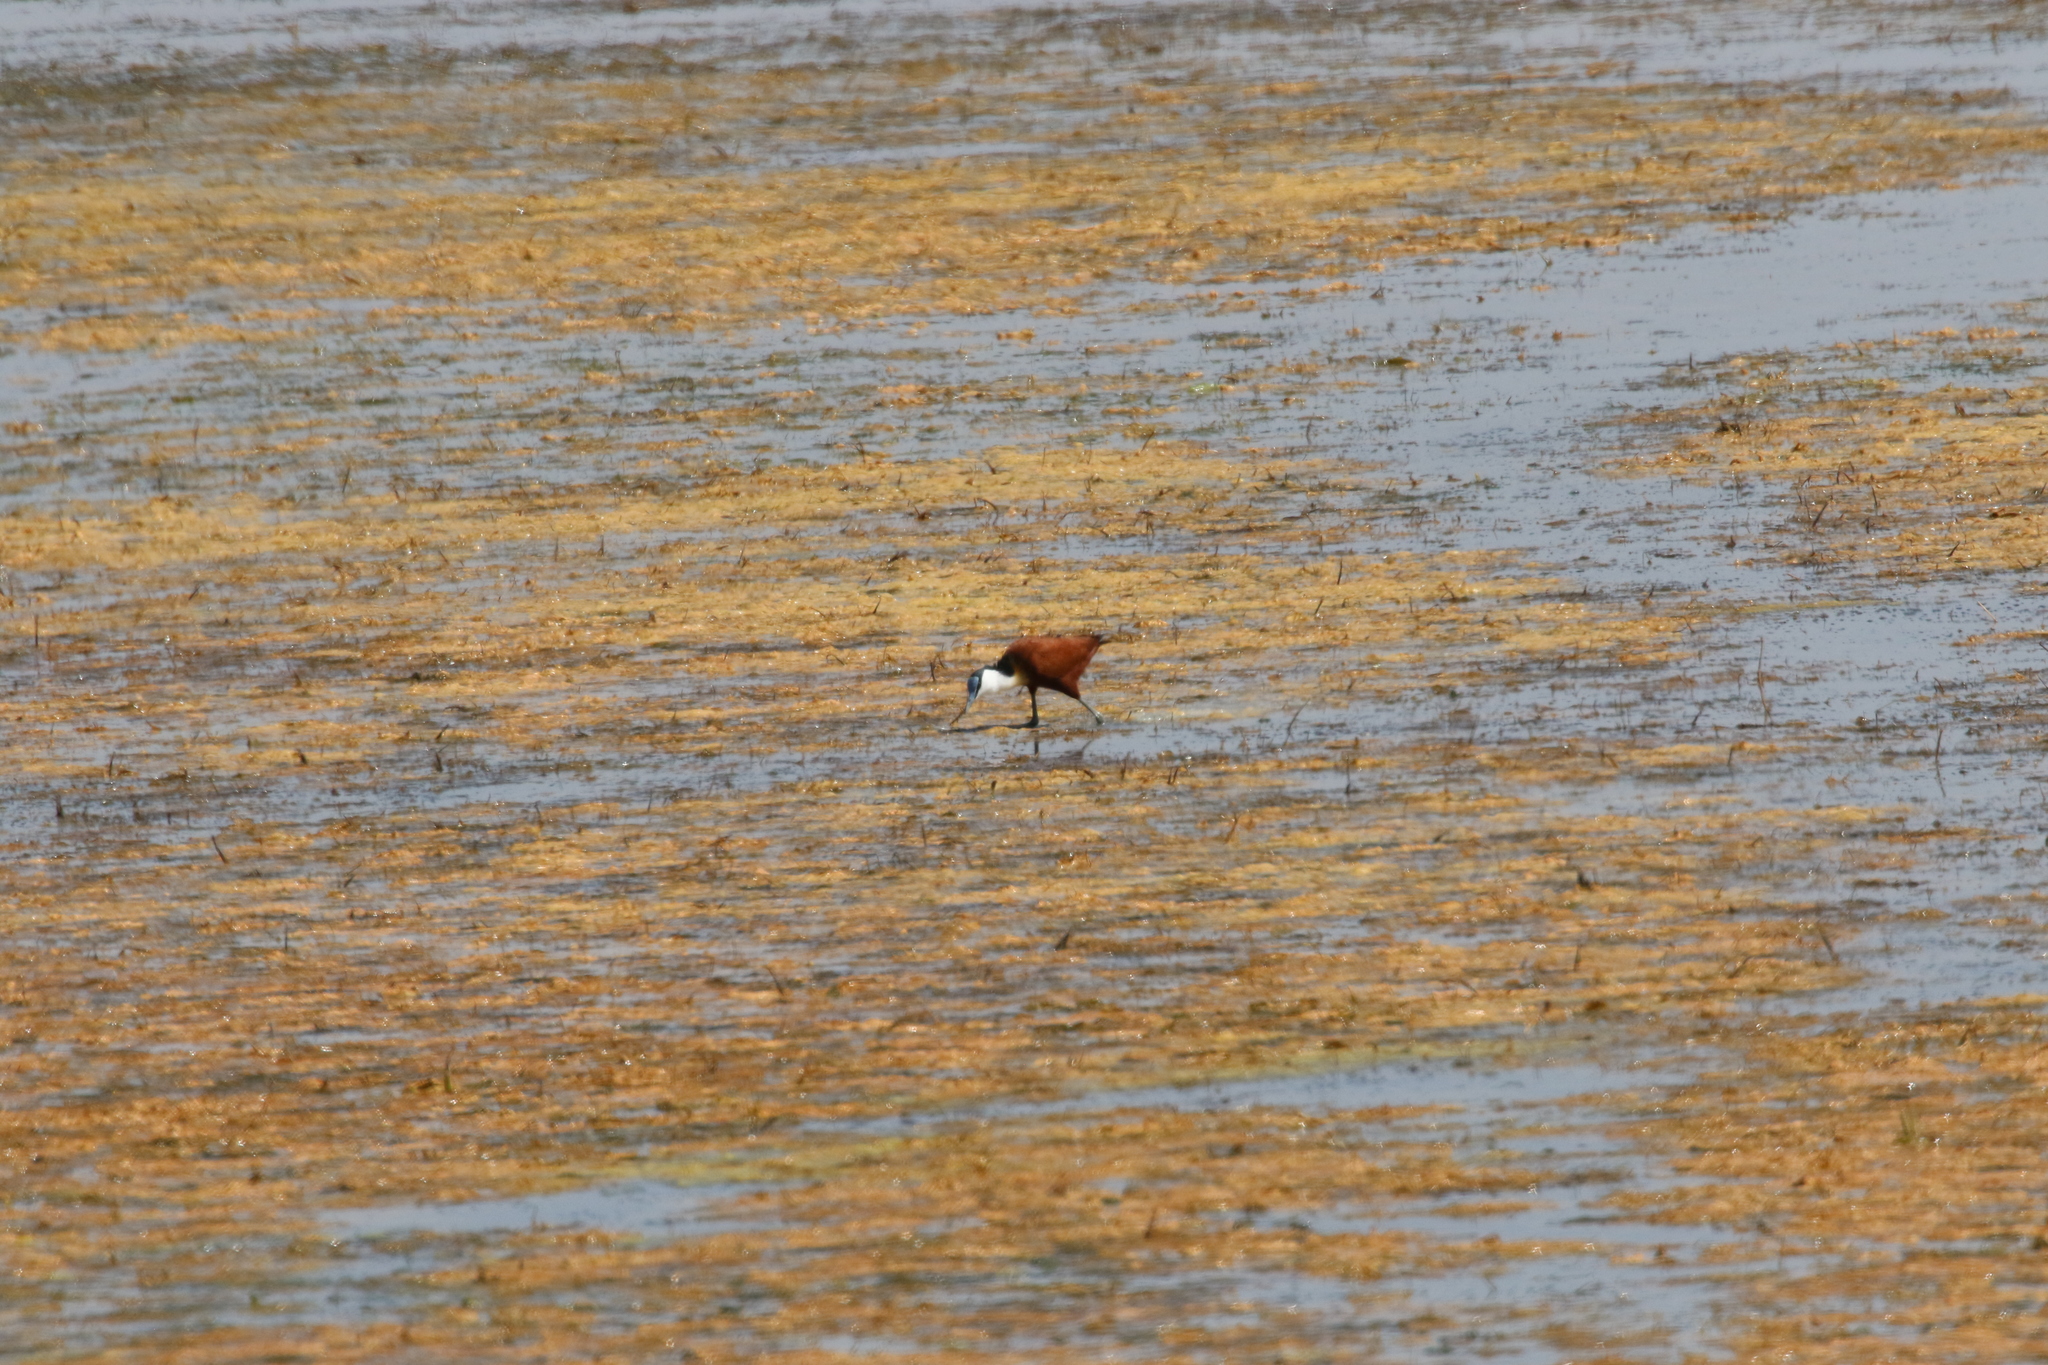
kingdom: Animalia
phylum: Chordata
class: Aves
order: Charadriiformes
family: Jacanidae
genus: Actophilornis
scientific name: Actophilornis africanus
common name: African jacana
